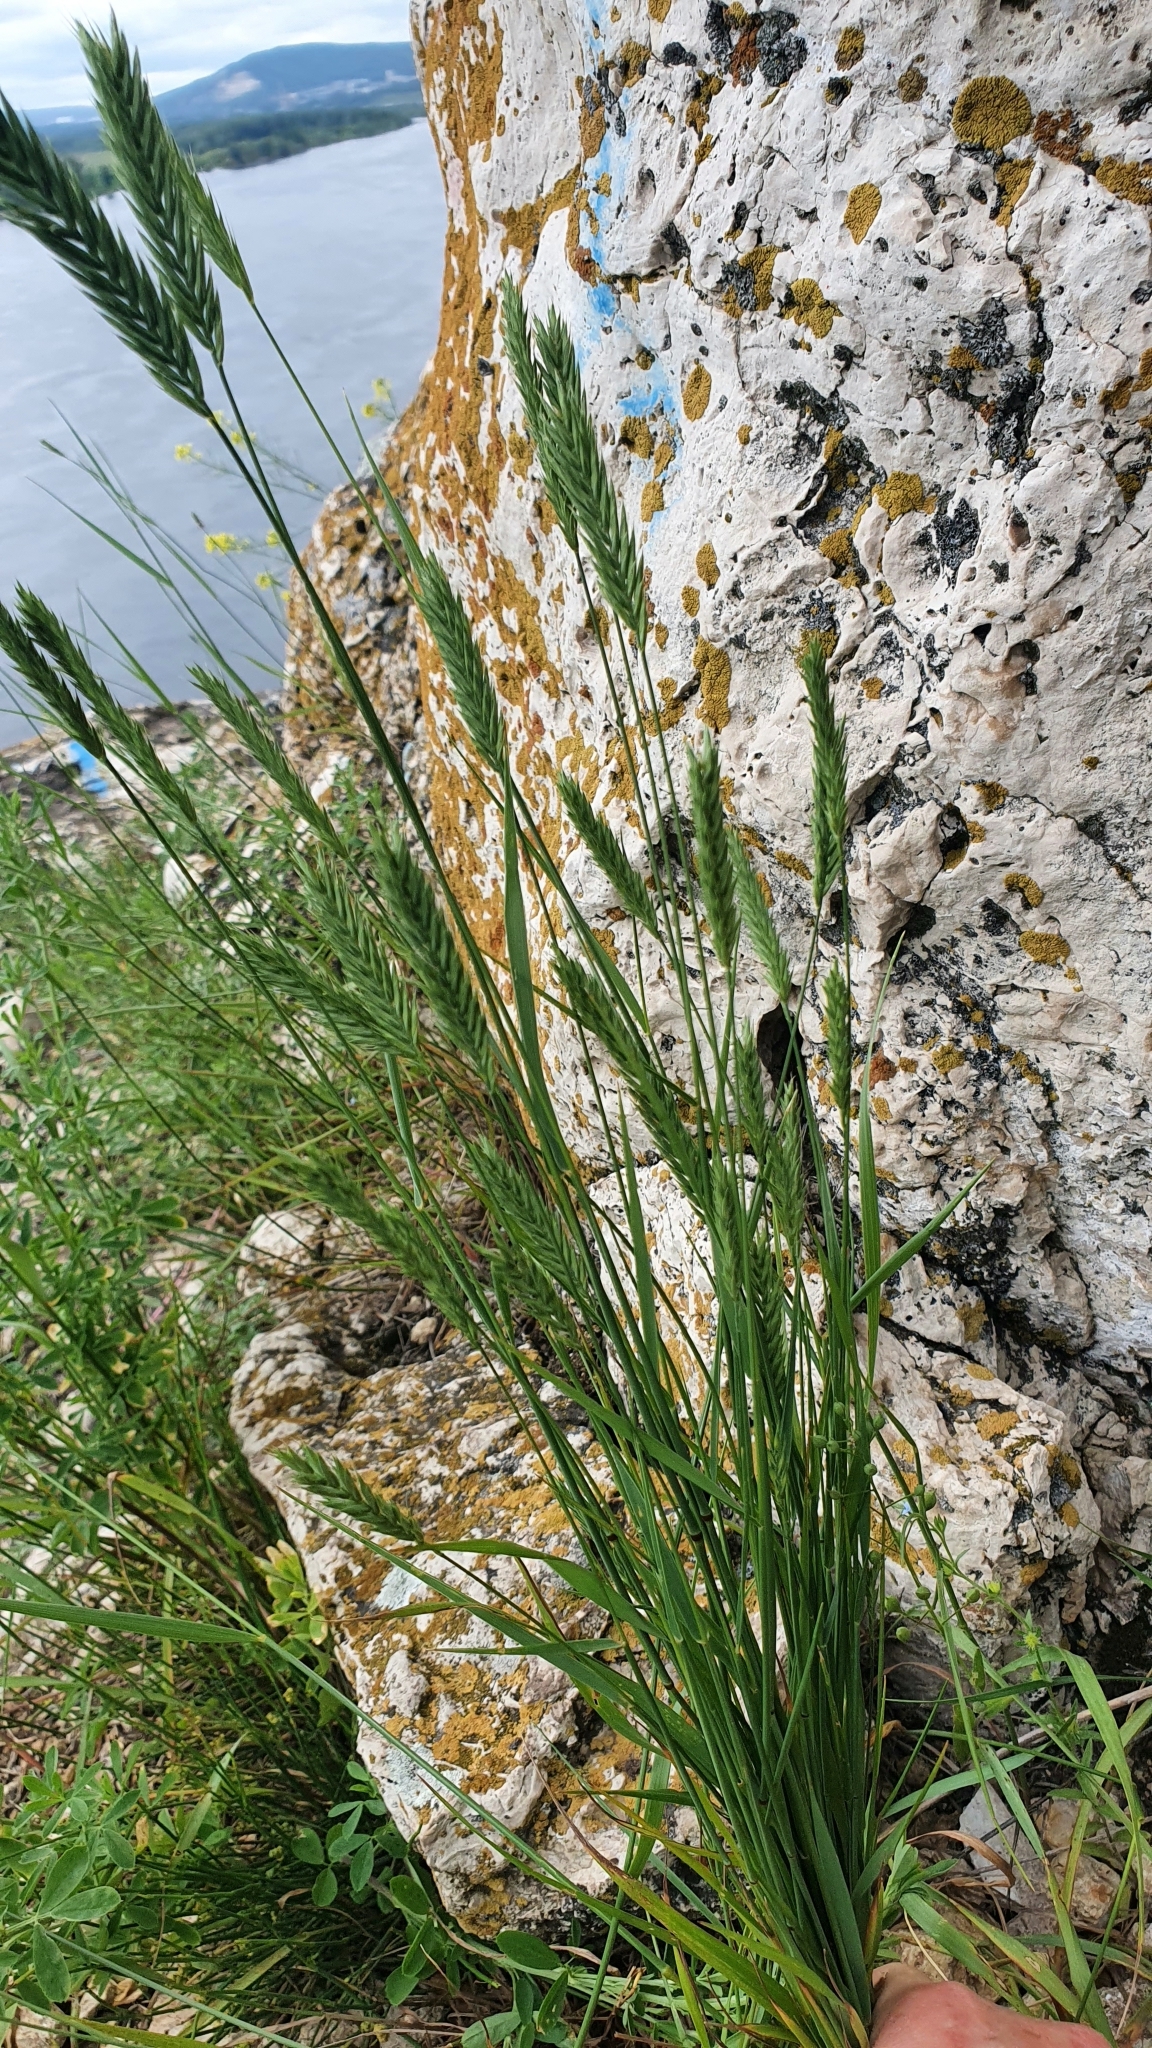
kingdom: Plantae
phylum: Tracheophyta
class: Liliopsida
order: Poales
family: Poaceae
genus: Agropyron
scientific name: Agropyron cristatum
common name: Crested wheatgrass
